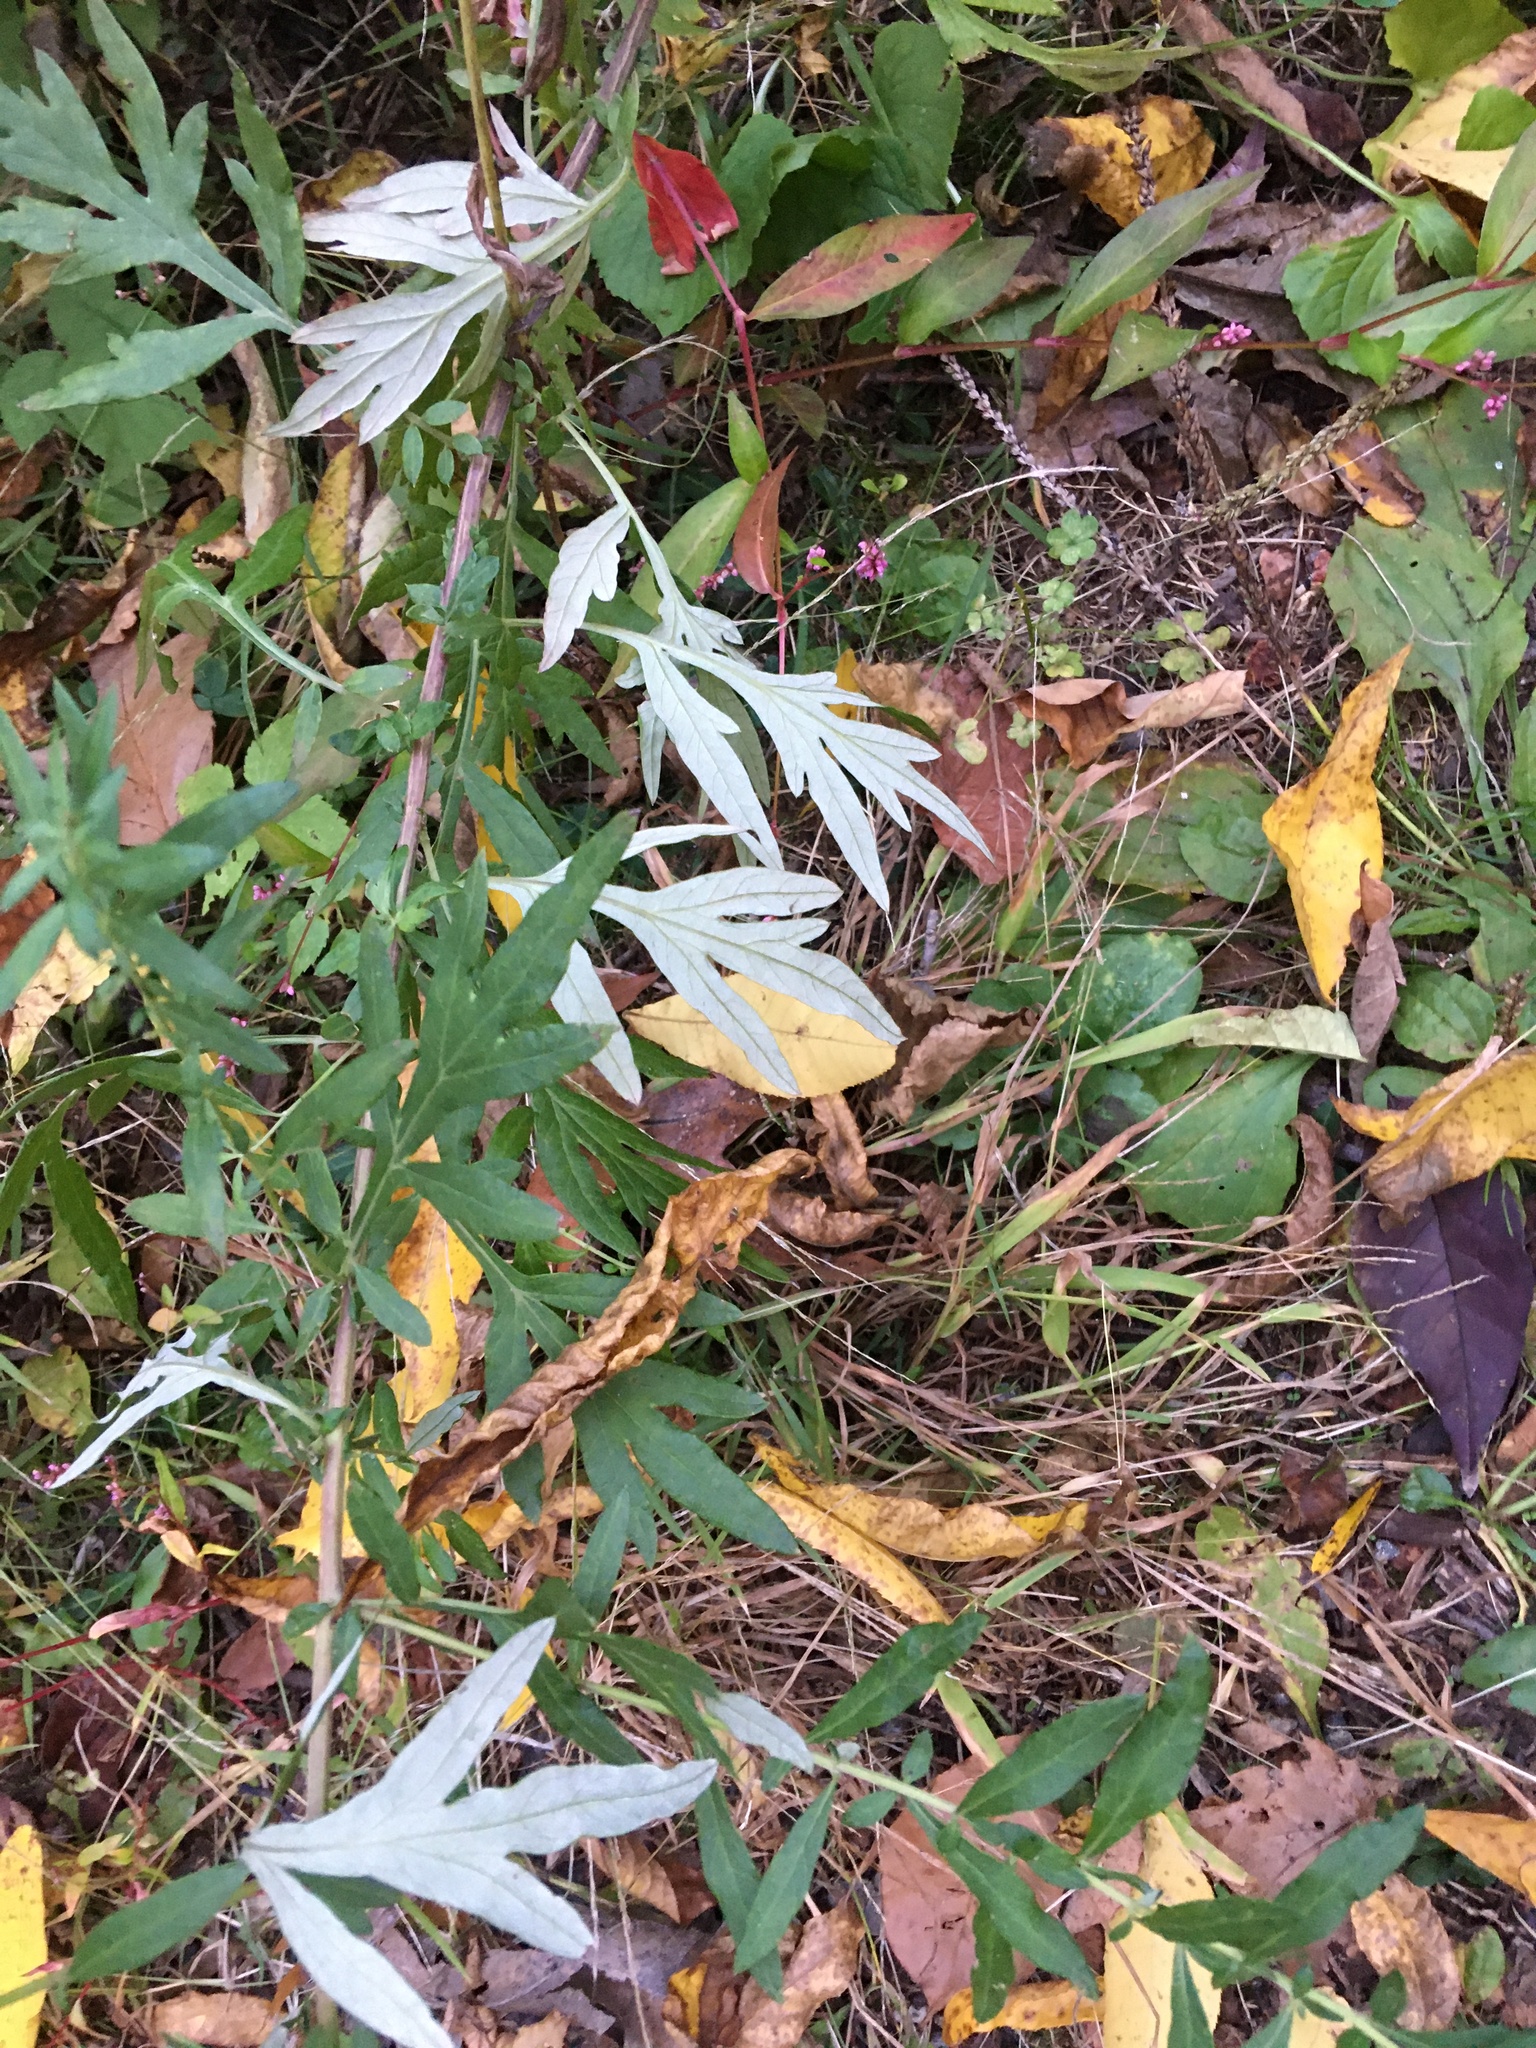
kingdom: Plantae
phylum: Tracheophyta
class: Magnoliopsida
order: Asterales
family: Asteraceae
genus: Artemisia
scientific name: Artemisia vulgaris
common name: Mugwort
